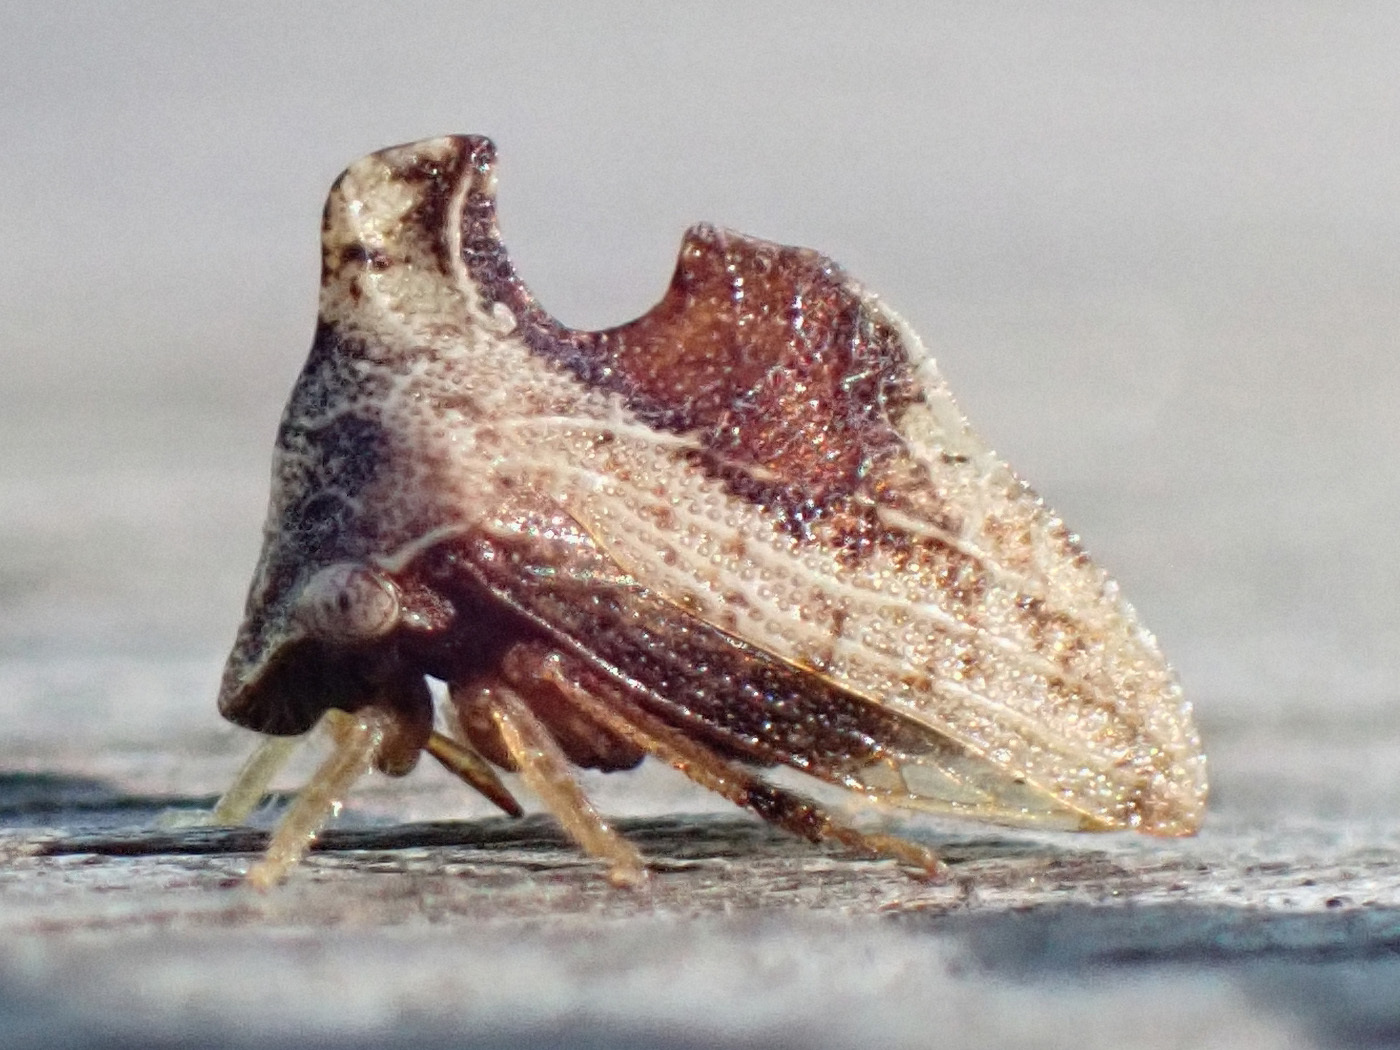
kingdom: Animalia
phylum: Arthropoda
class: Insecta
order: Hemiptera
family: Membracidae
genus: Entylia
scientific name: Entylia carinata
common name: Keeled treehopper
